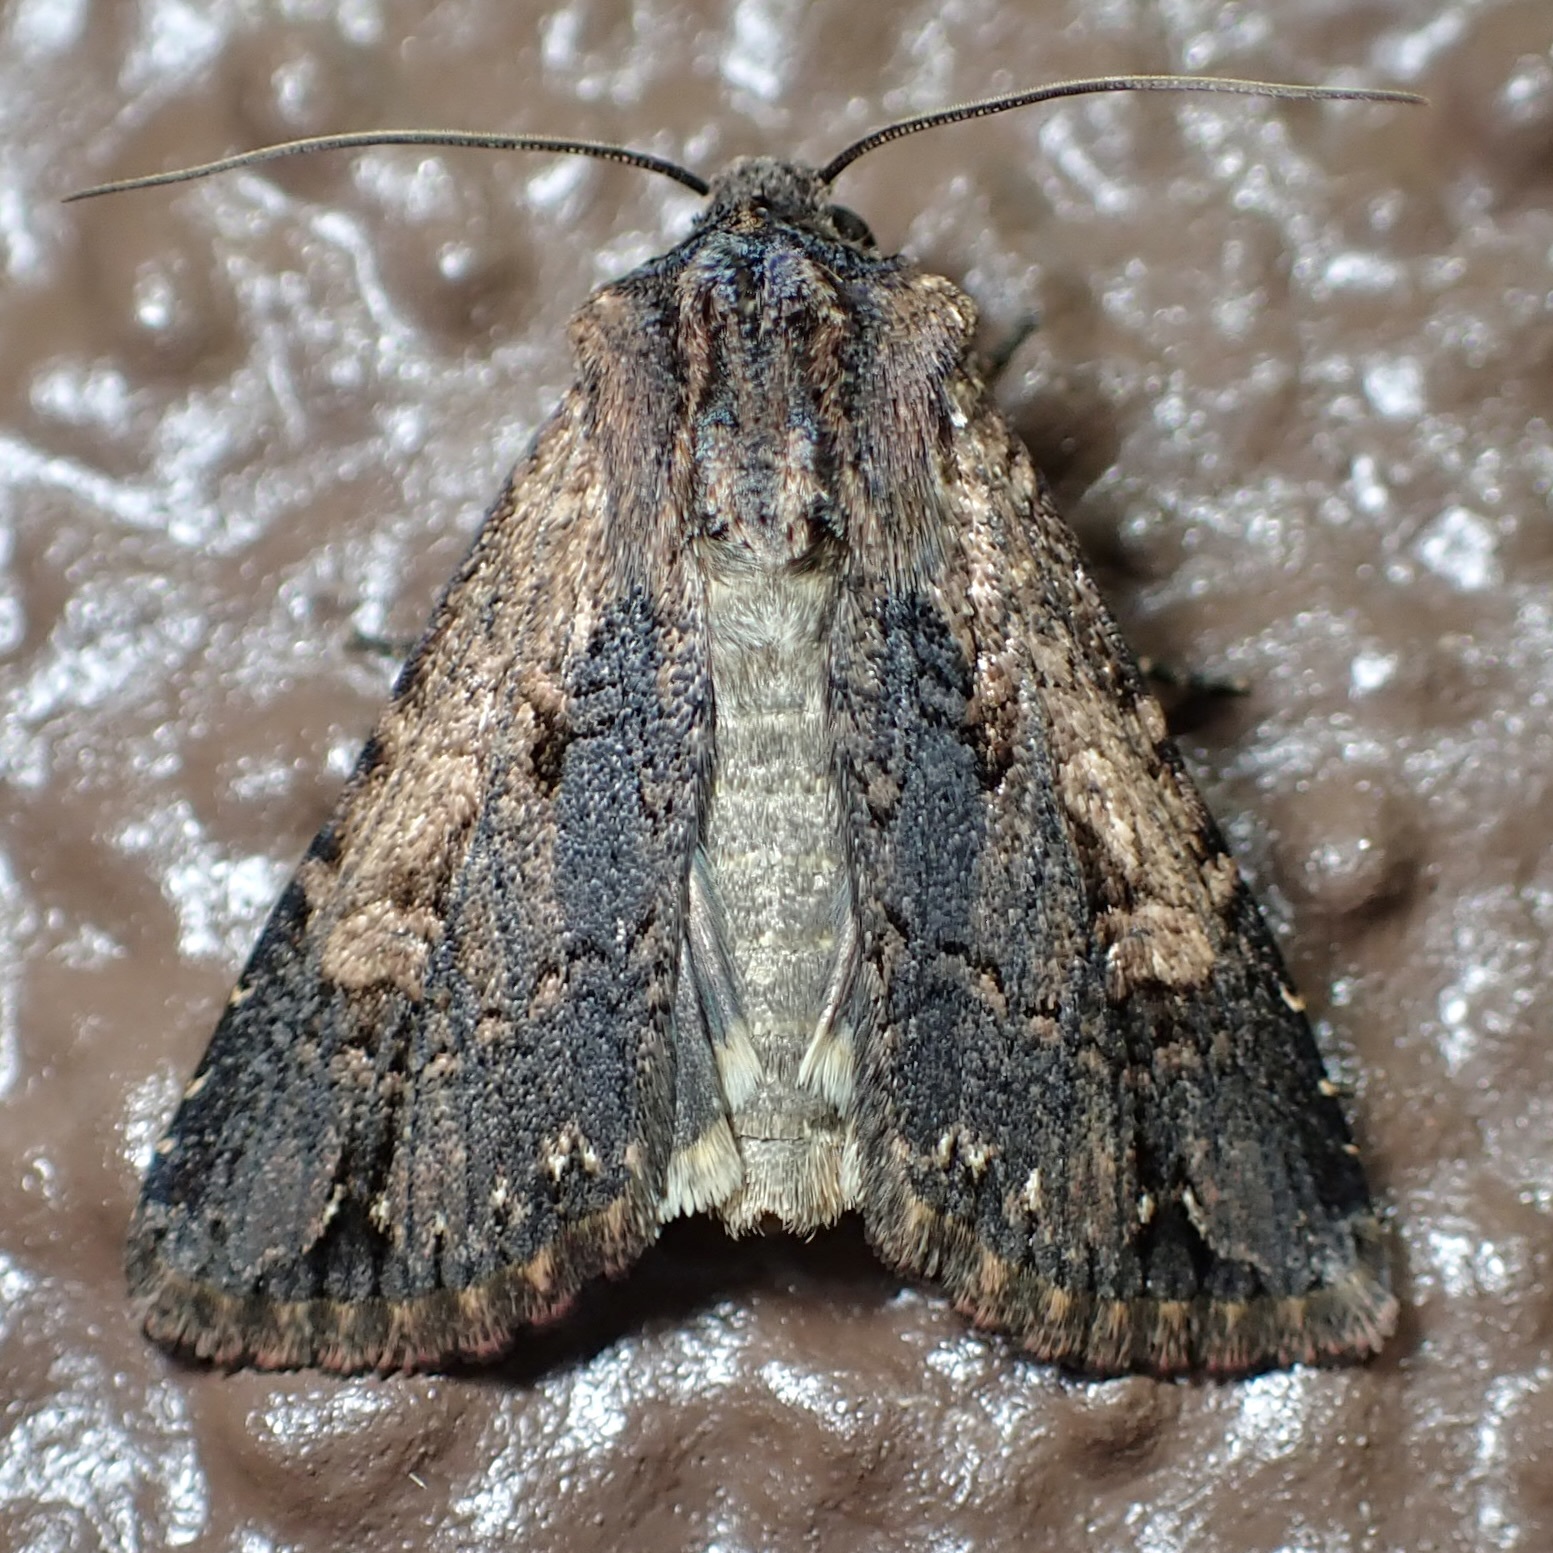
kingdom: Animalia
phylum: Arthropoda
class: Insecta
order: Lepidoptera
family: Noctuidae
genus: Dichagyris
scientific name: Dichagyris proclivis
